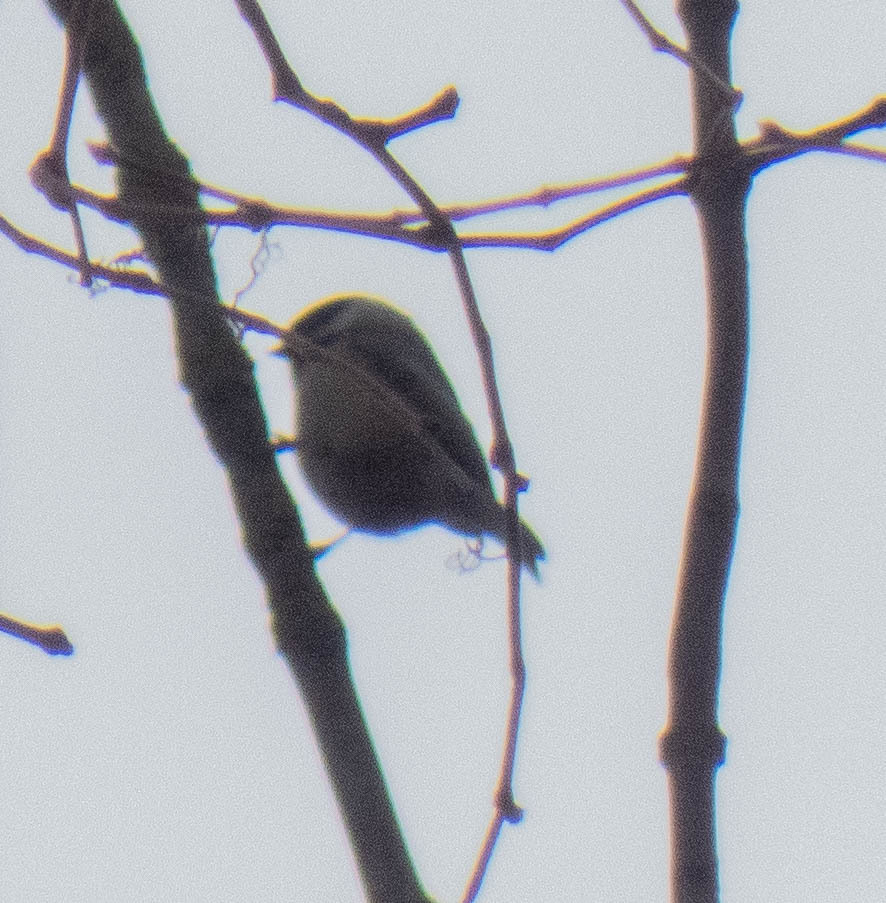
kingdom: Animalia
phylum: Chordata
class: Aves
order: Passeriformes
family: Paridae
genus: Poecile
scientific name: Poecile carolinensis
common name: Carolina chickadee
